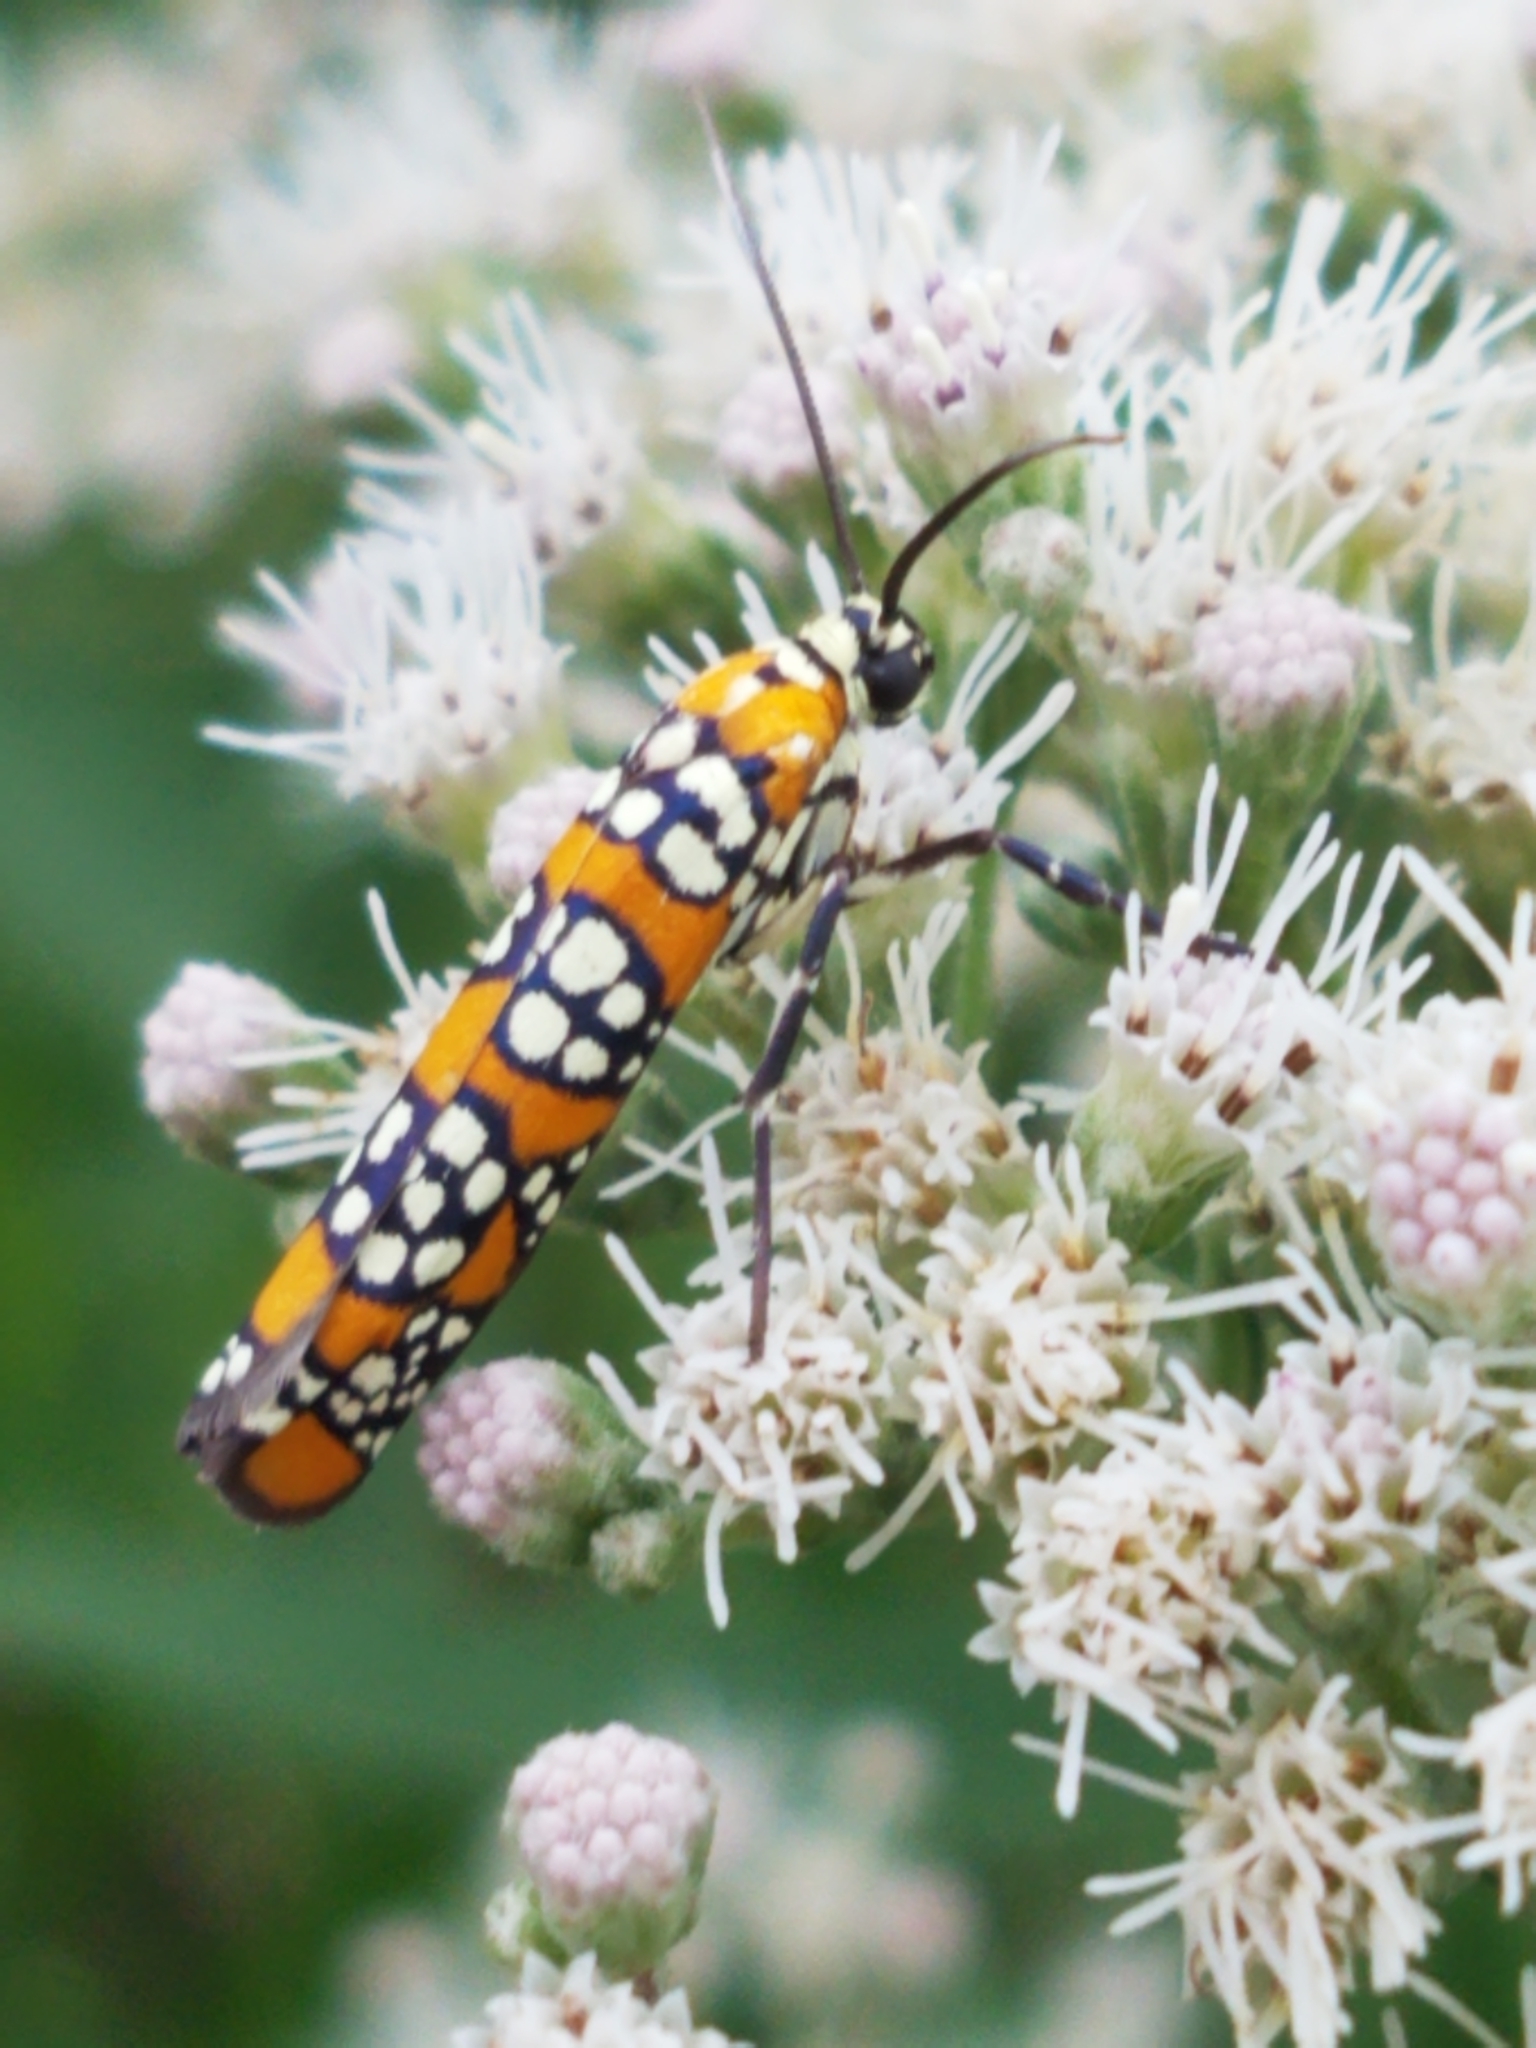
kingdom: Animalia
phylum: Arthropoda
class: Insecta
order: Lepidoptera
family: Attevidae
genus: Atteva
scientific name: Atteva punctella
